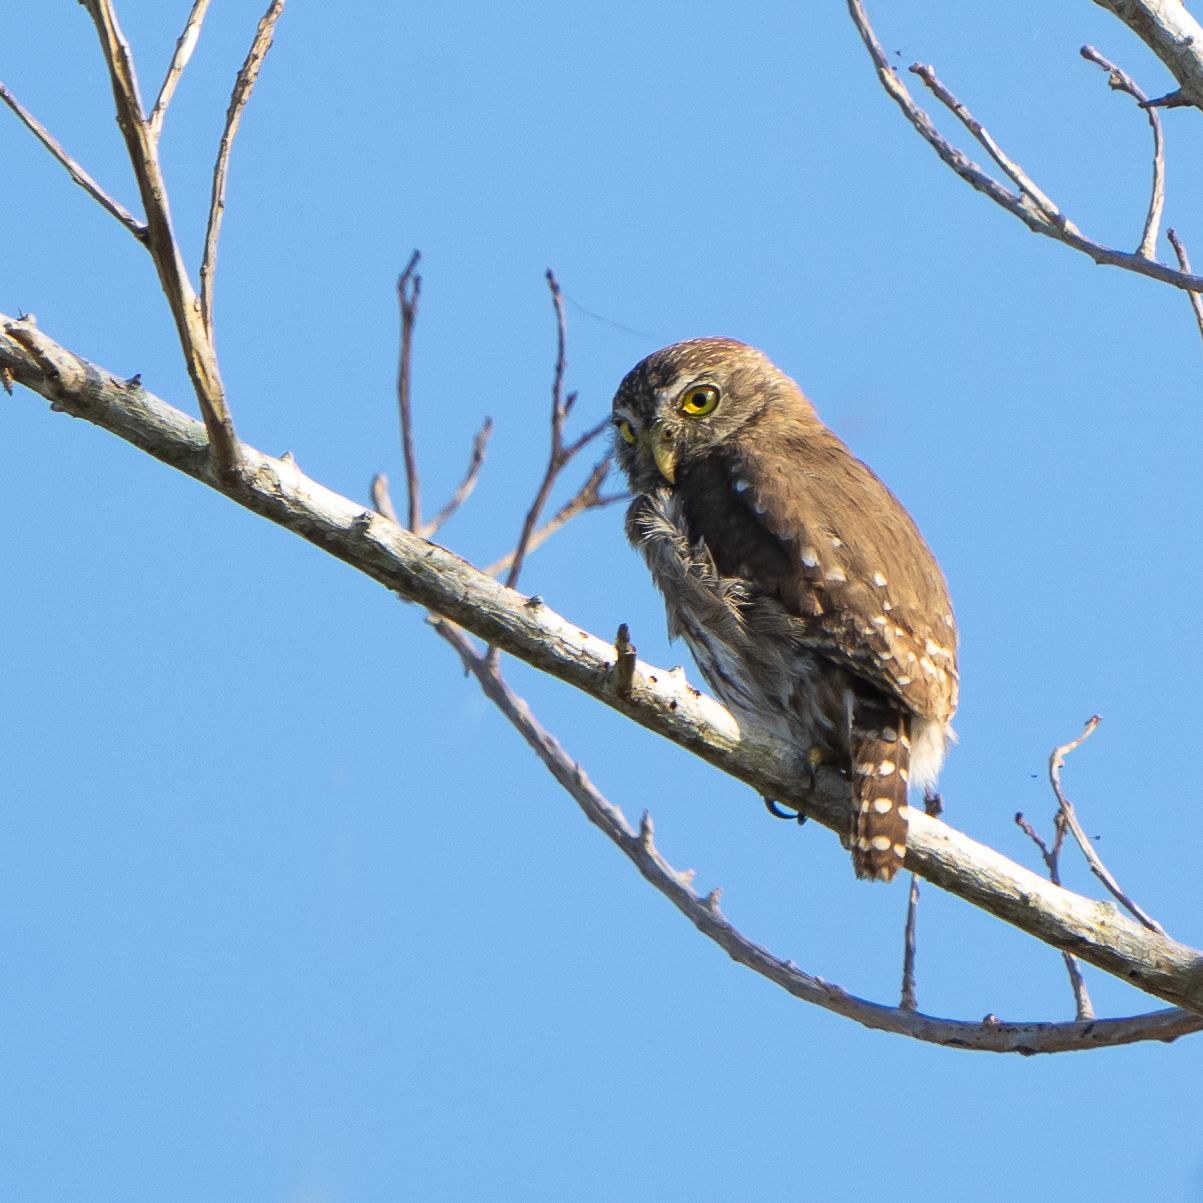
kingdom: Animalia
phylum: Chordata
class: Aves
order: Strigiformes
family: Strigidae
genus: Glaucidium
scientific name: Glaucidium brasilianum
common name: Ferruginous pygmy-owl
